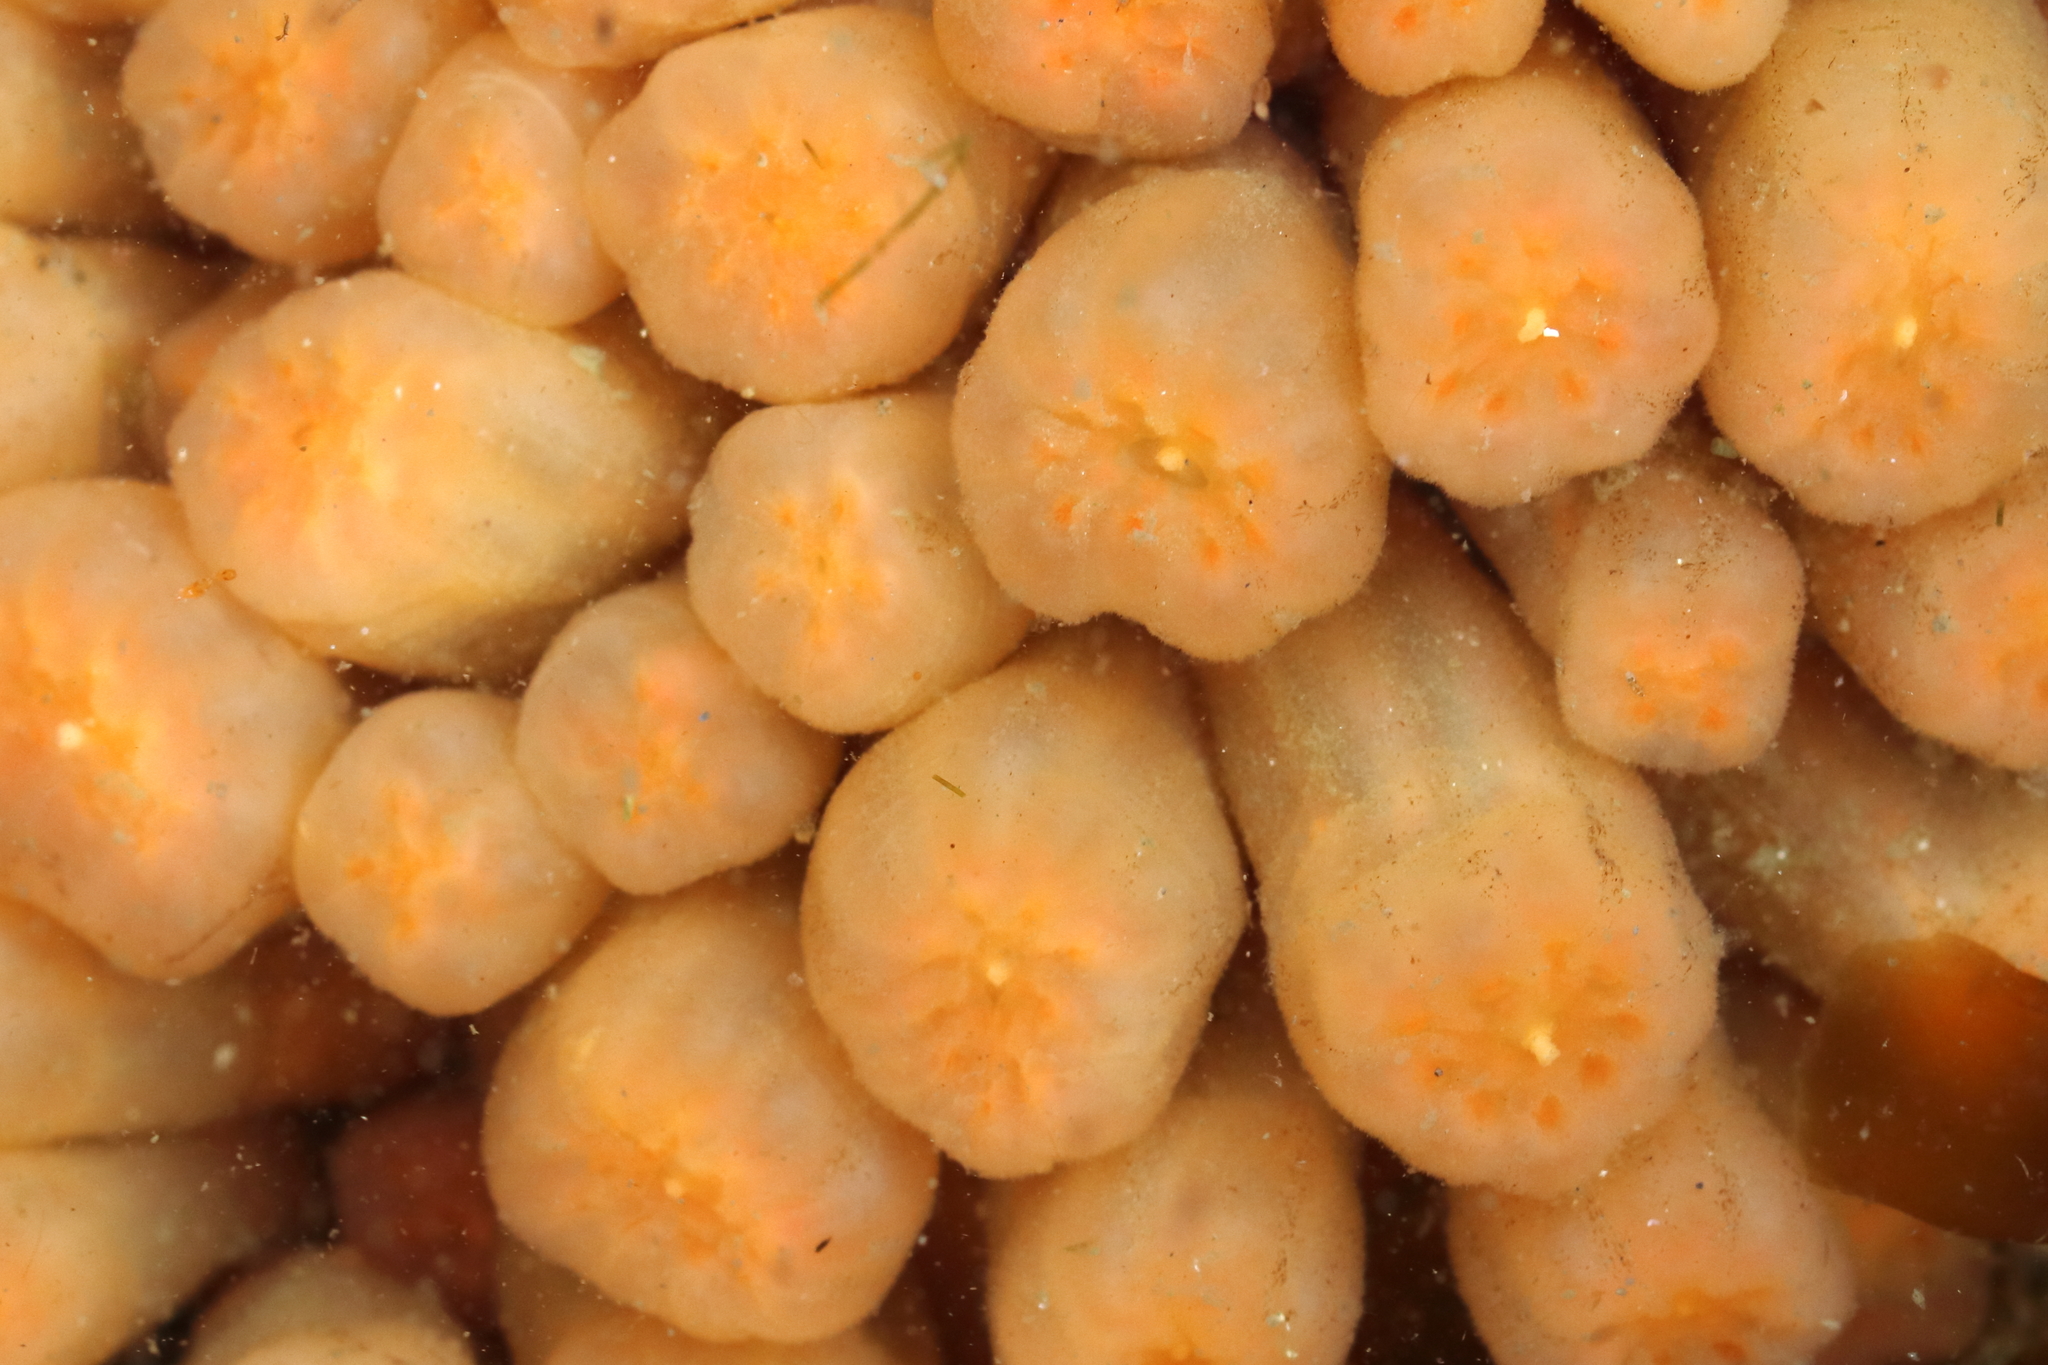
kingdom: Animalia
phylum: Chordata
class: Ascidiacea
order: Aplousobranchia
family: Polyclinidae
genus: Aplidium
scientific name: Aplidium coei
